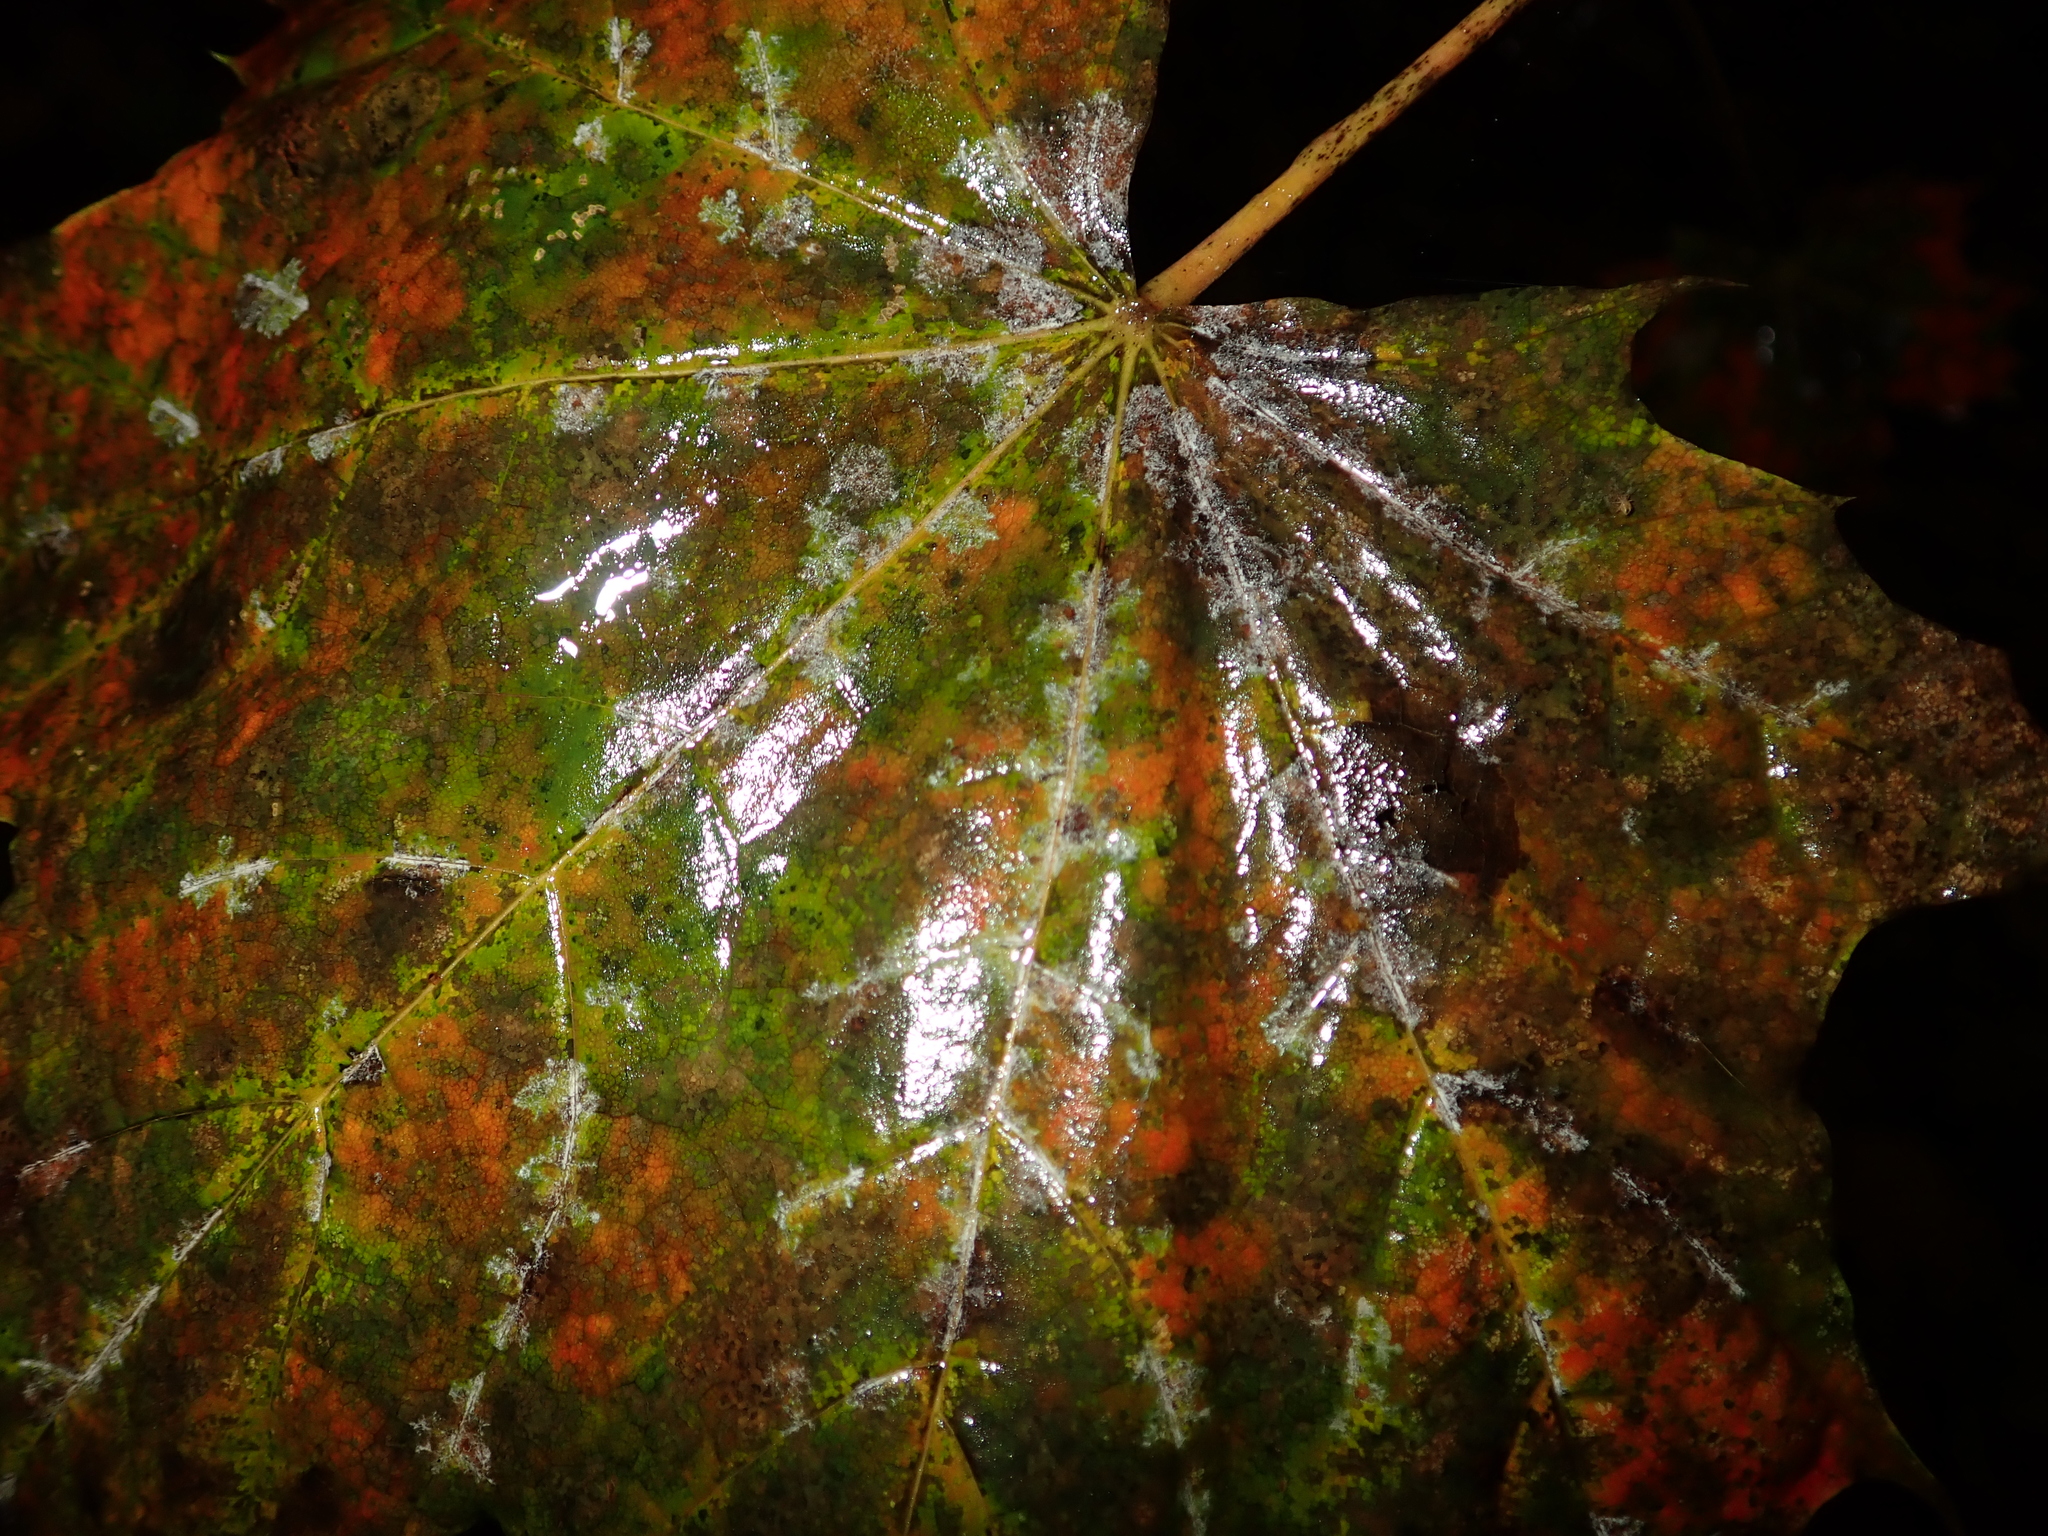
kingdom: Fungi
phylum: Ascomycota
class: Leotiomycetes
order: Helotiales
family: Erysiphaceae
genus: Sawadaea
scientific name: Sawadaea tulasnei
